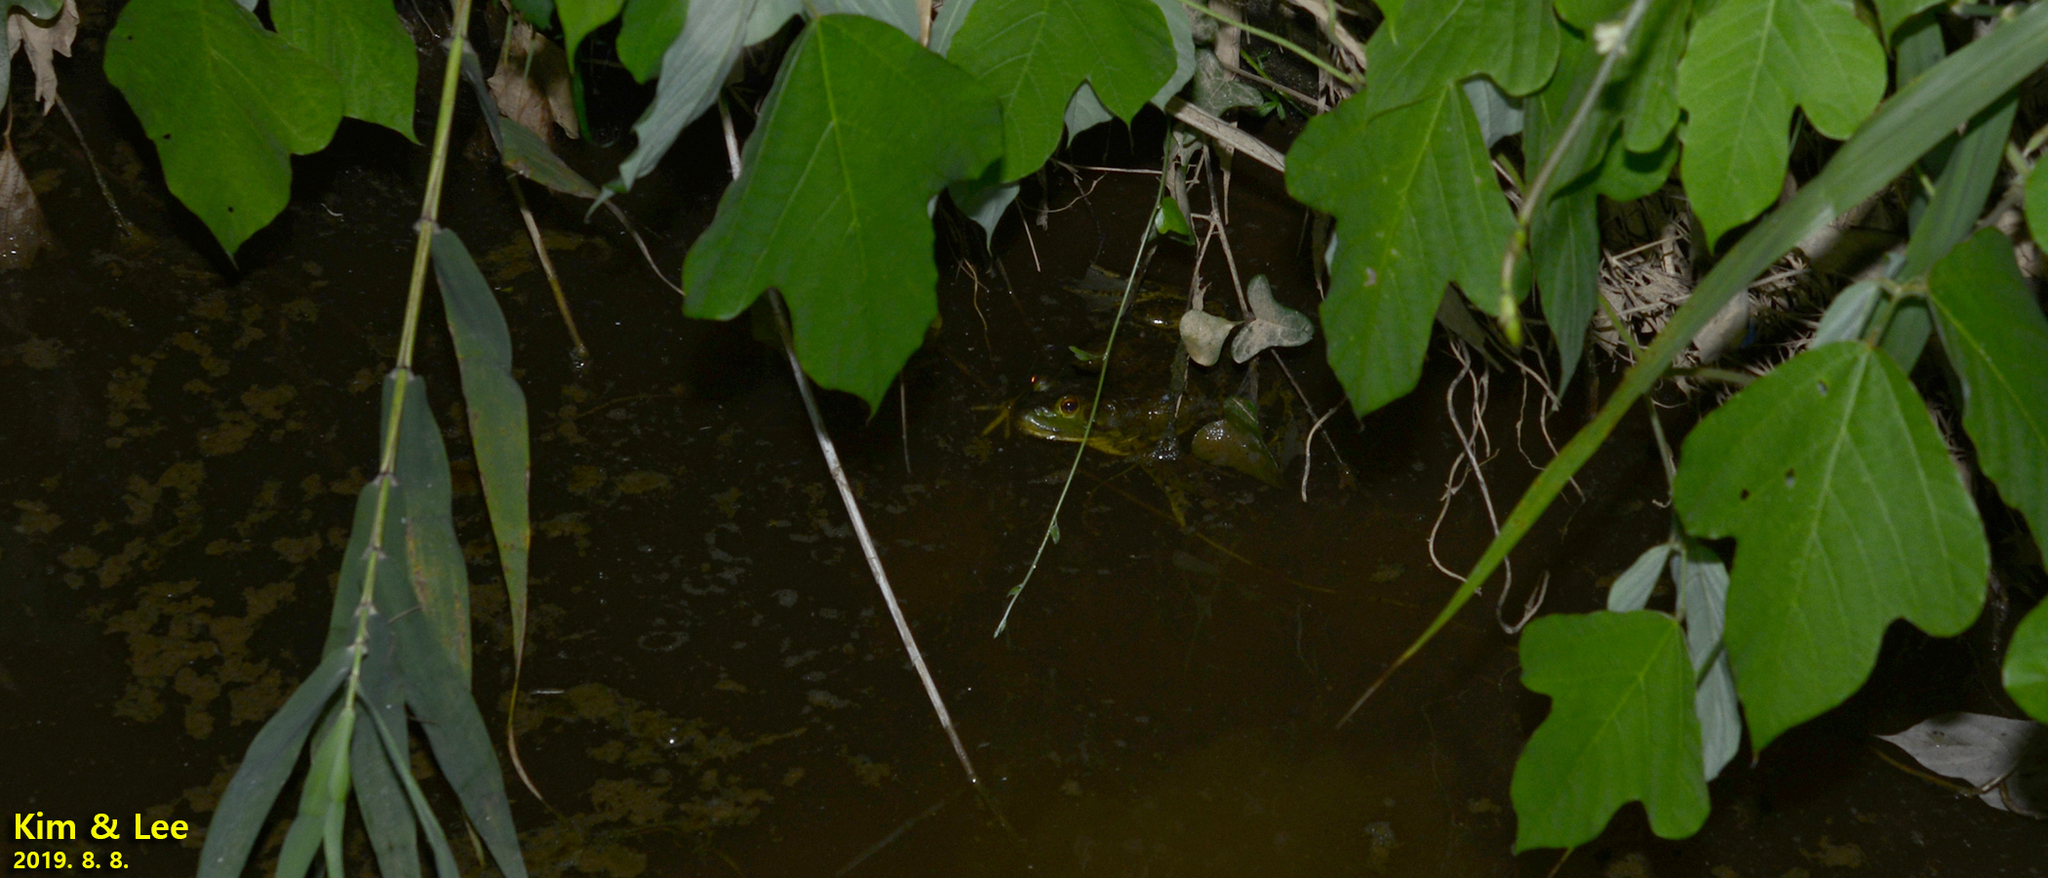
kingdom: Animalia
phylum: Chordata
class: Amphibia
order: Anura
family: Ranidae
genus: Lithobates
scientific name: Lithobates catesbeianus
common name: American bullfrog
